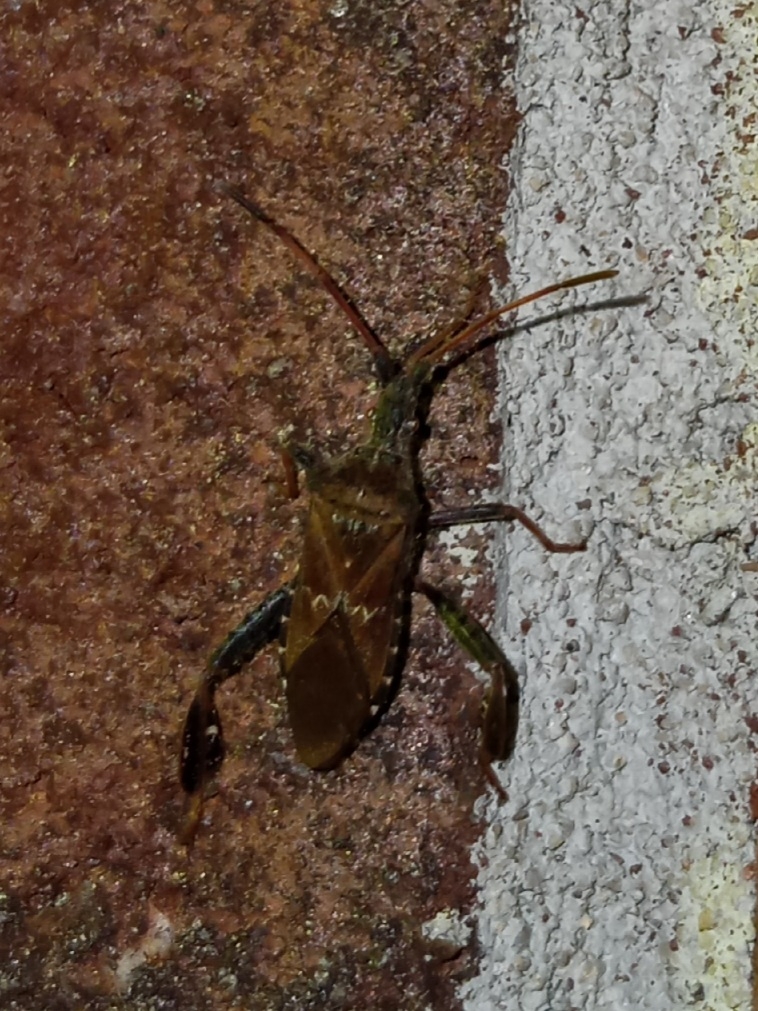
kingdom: Animalia
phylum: Arthropoda
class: Insecta
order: Hemiptera
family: Coreidae
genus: Leptoglossus
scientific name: Leptoglossus corculus
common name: Southern pine seed bug
